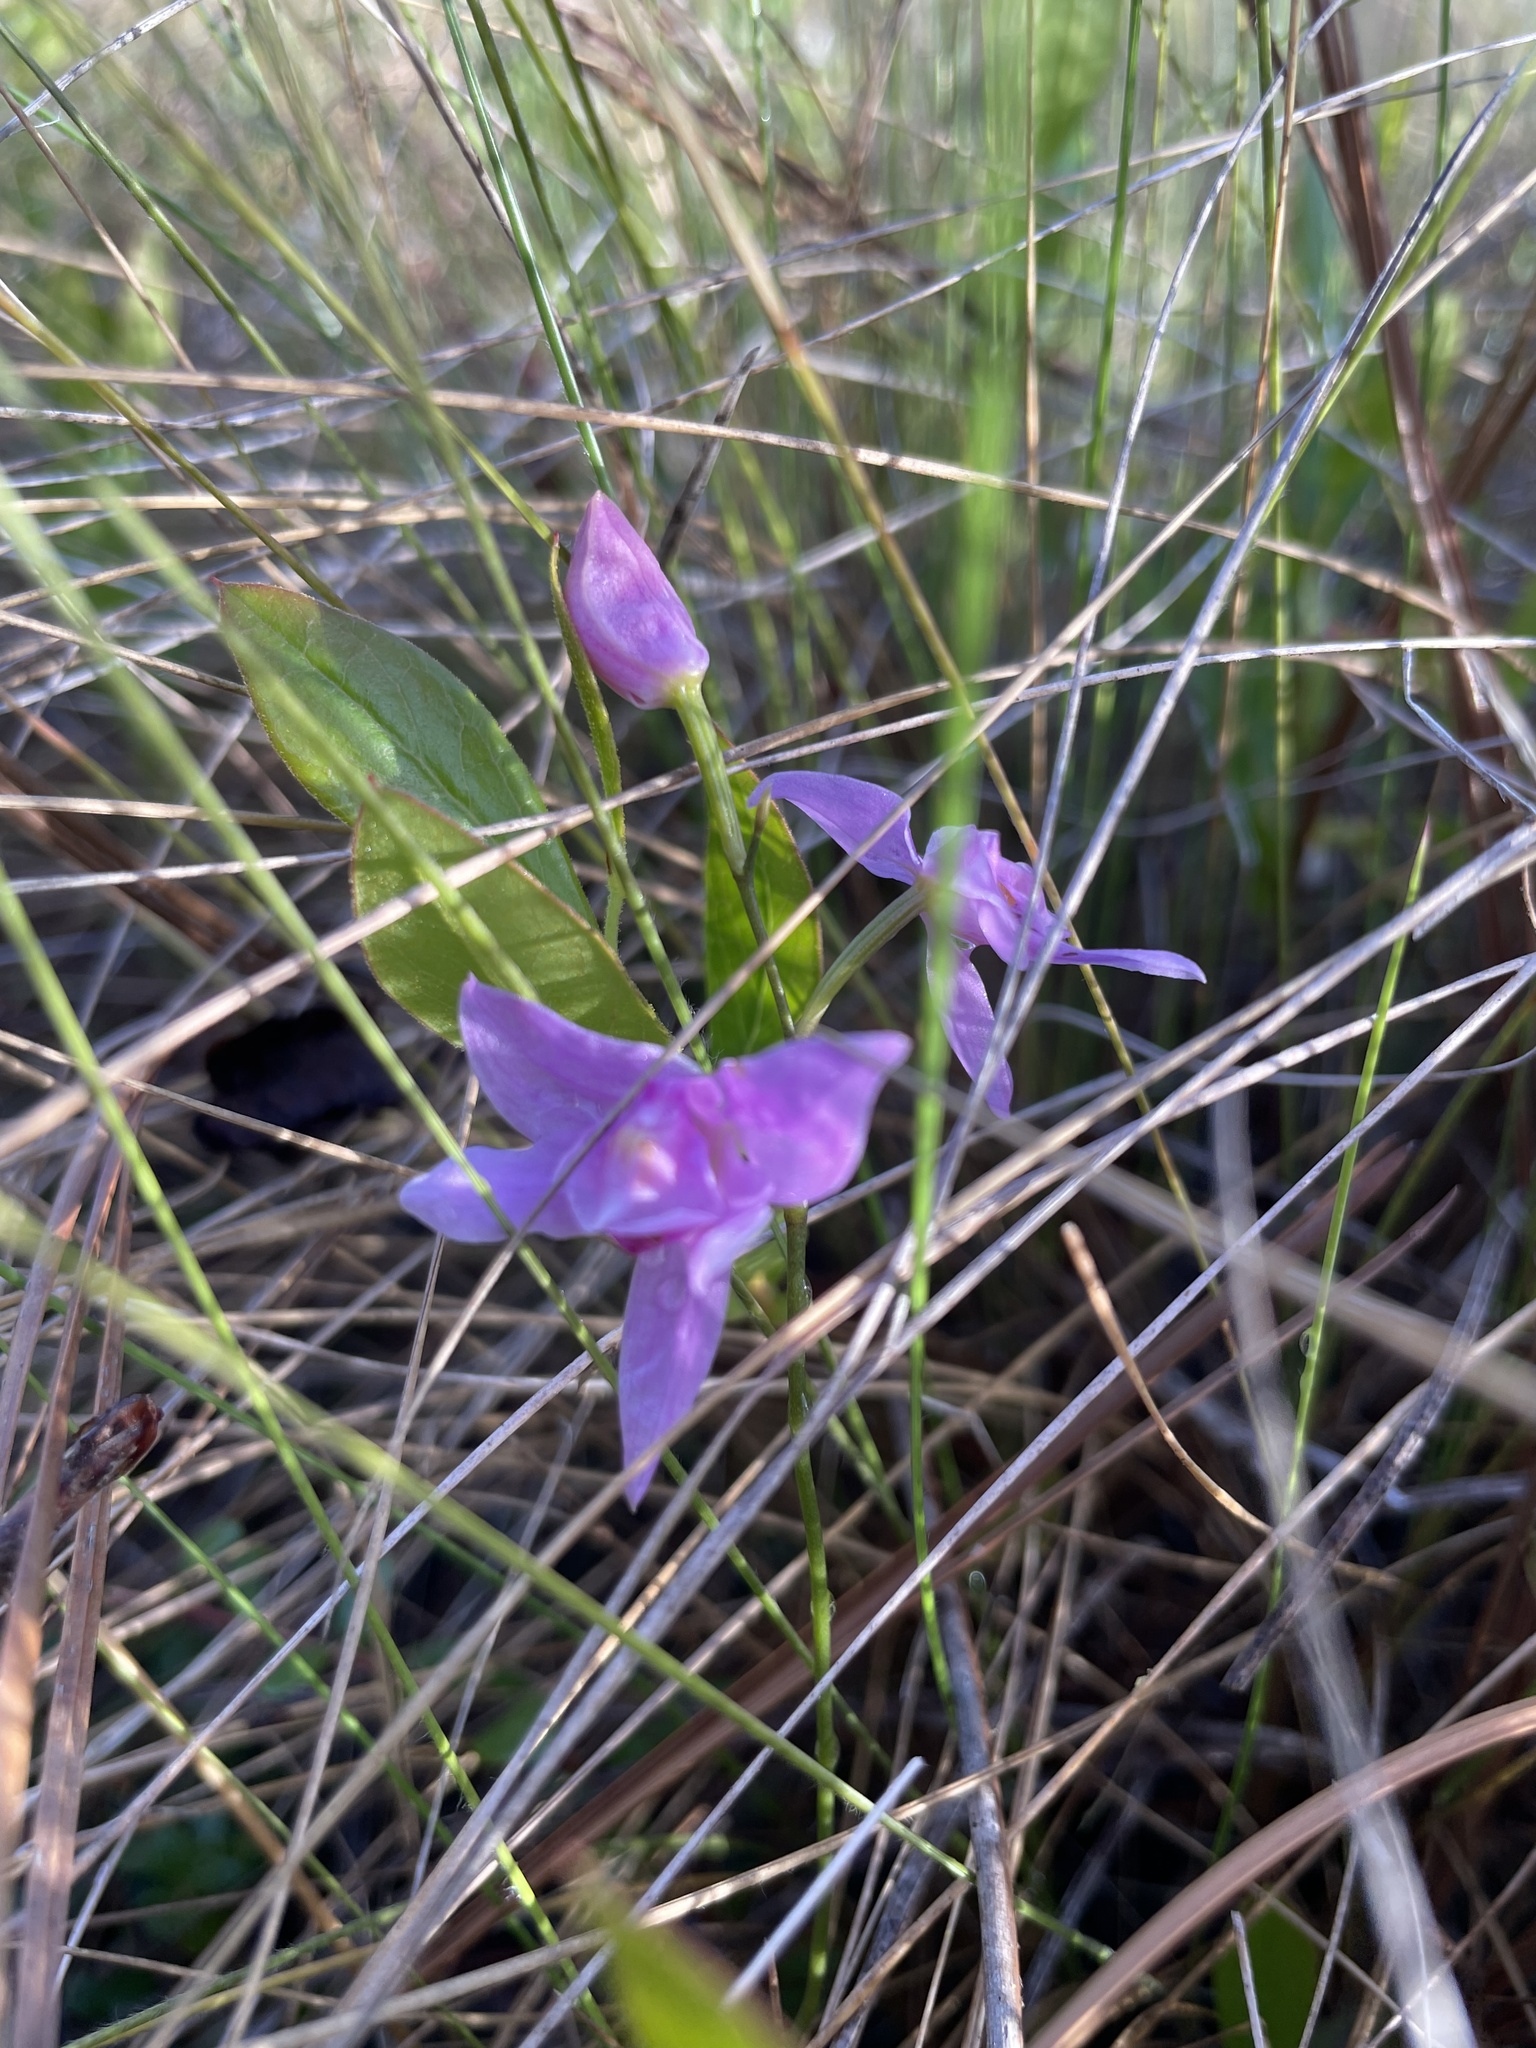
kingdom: Plantae
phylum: Tracheophyta
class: Liliopsida
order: Asparagales
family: Orchidaceae
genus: Calopogon
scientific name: Calopogon tuberosus
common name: Grass-pink
